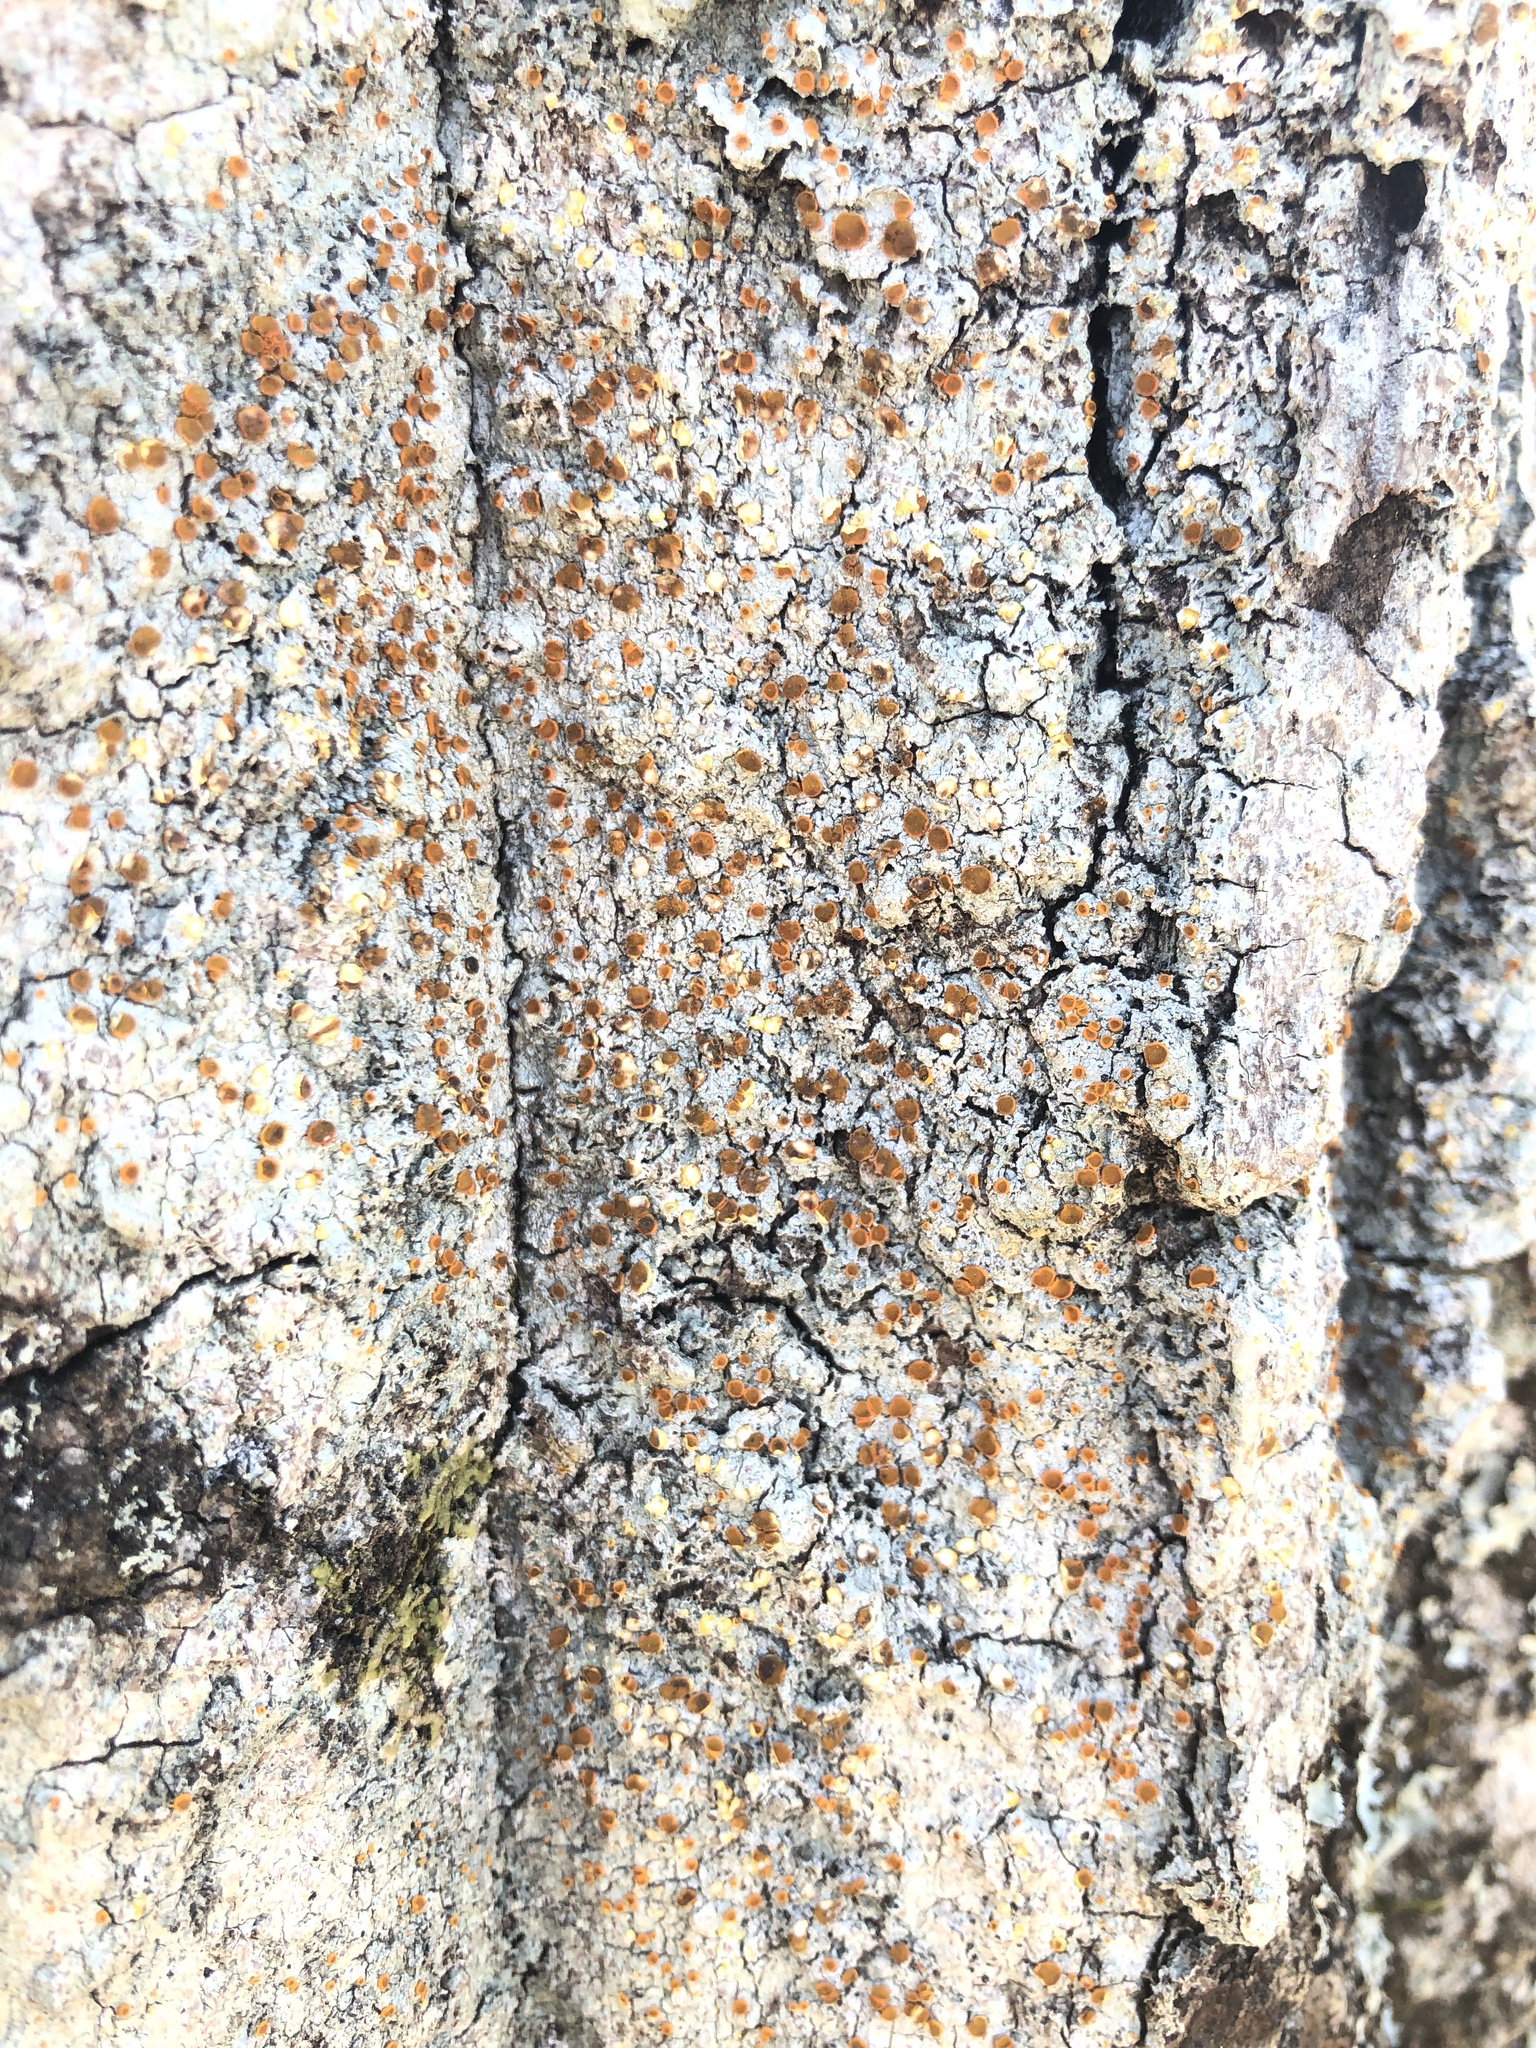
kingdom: Fungi
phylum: Ascomycota
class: Lecanoromycetes
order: Teloschistales
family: Brigantiaeaceae
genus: Brigantiaea
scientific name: Brigantiaea leucoxantha
